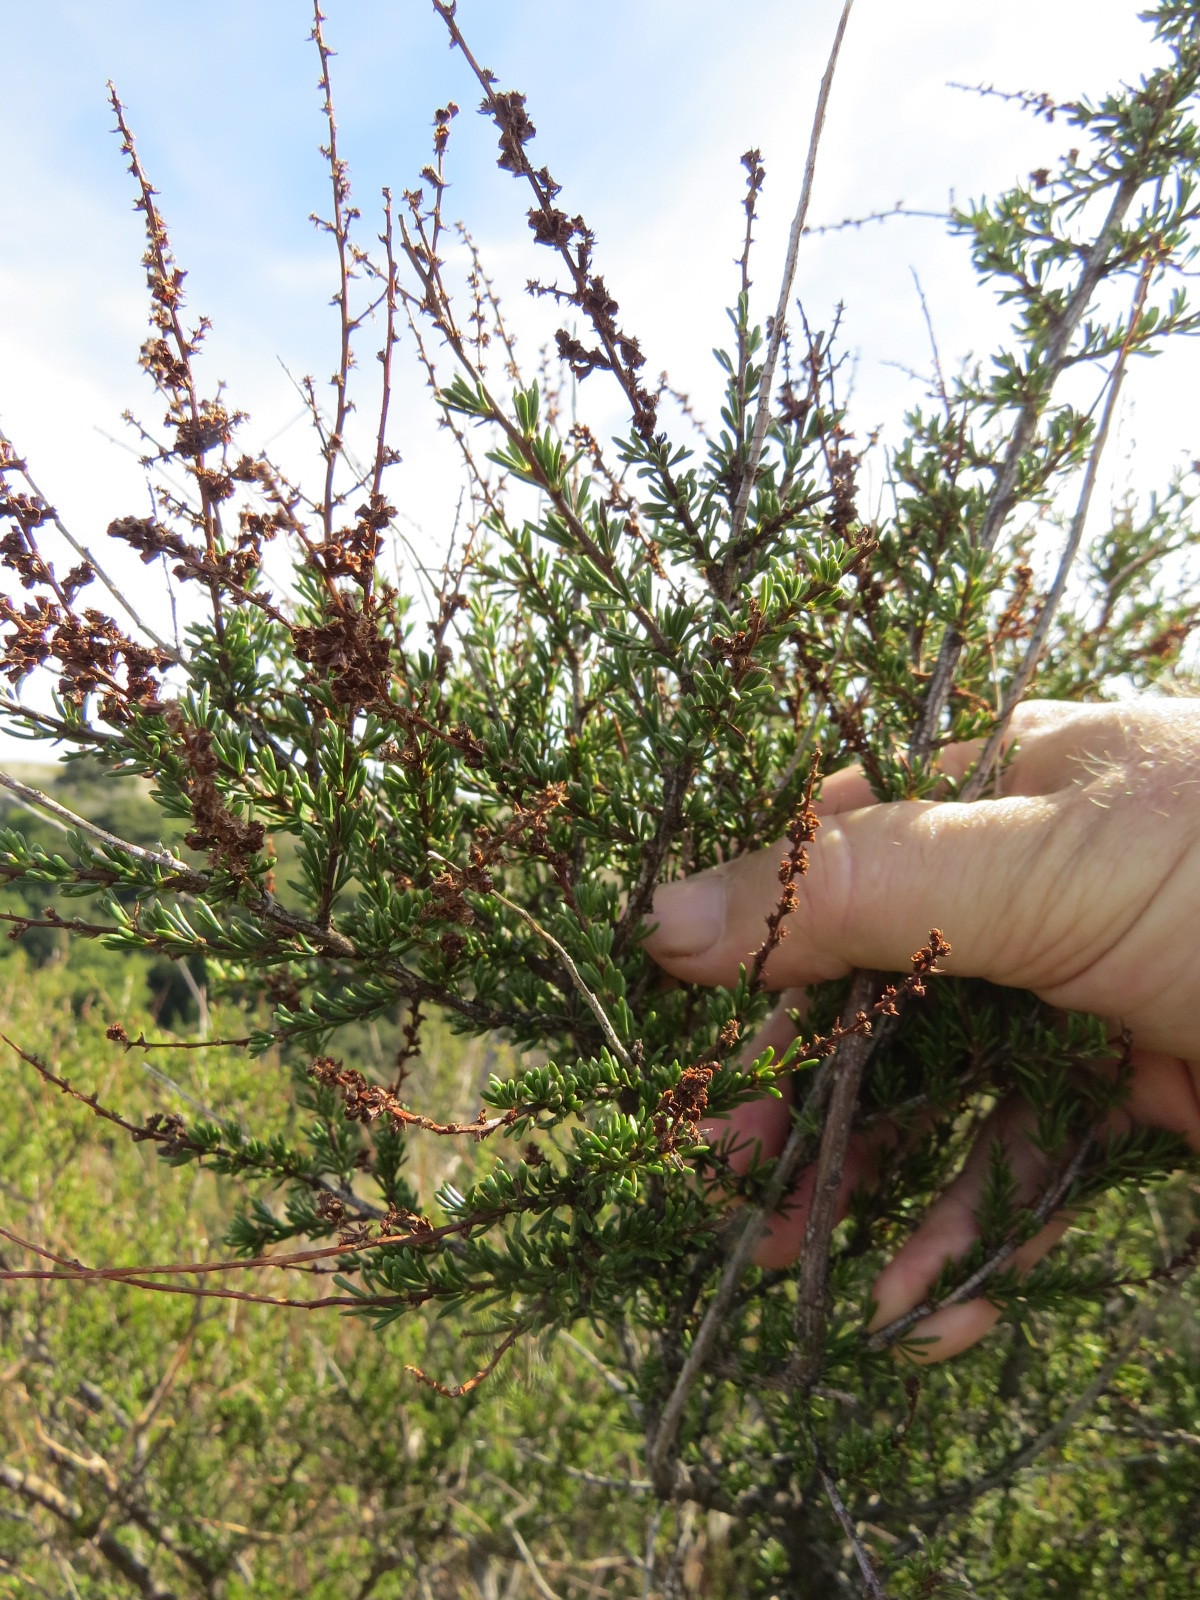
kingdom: Plantae
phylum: Tracheophyta
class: Magnoliopsida
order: Rosales
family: Rosaceae
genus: Adenostoma
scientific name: Adenostoma fasciculatum
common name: Chamise
